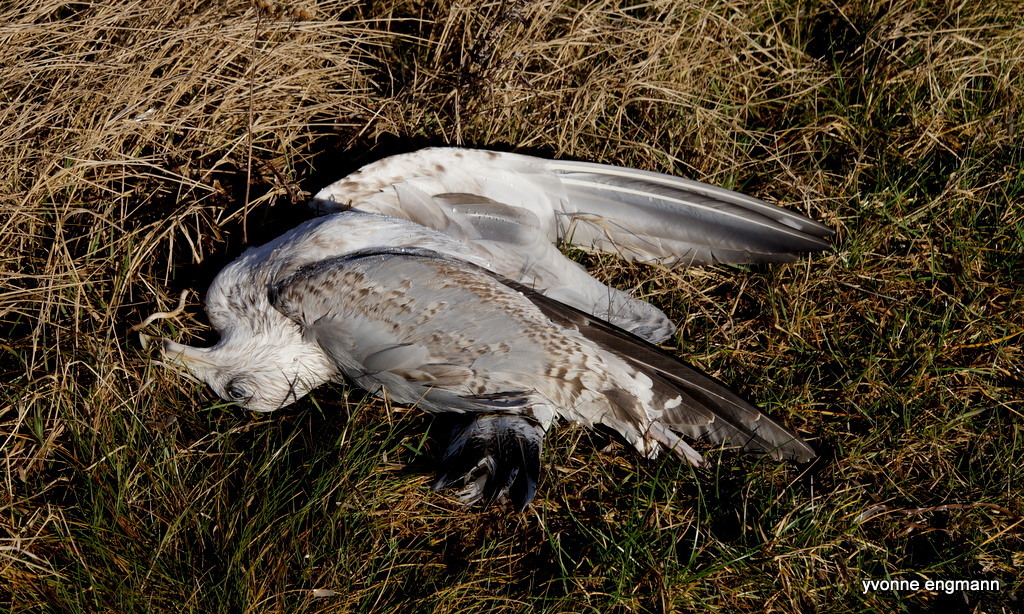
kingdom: Animalia
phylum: Chordata
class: Aves
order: Charadriiformes
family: Laridae
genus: Larus
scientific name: Larus argentatus
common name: Herring gull
